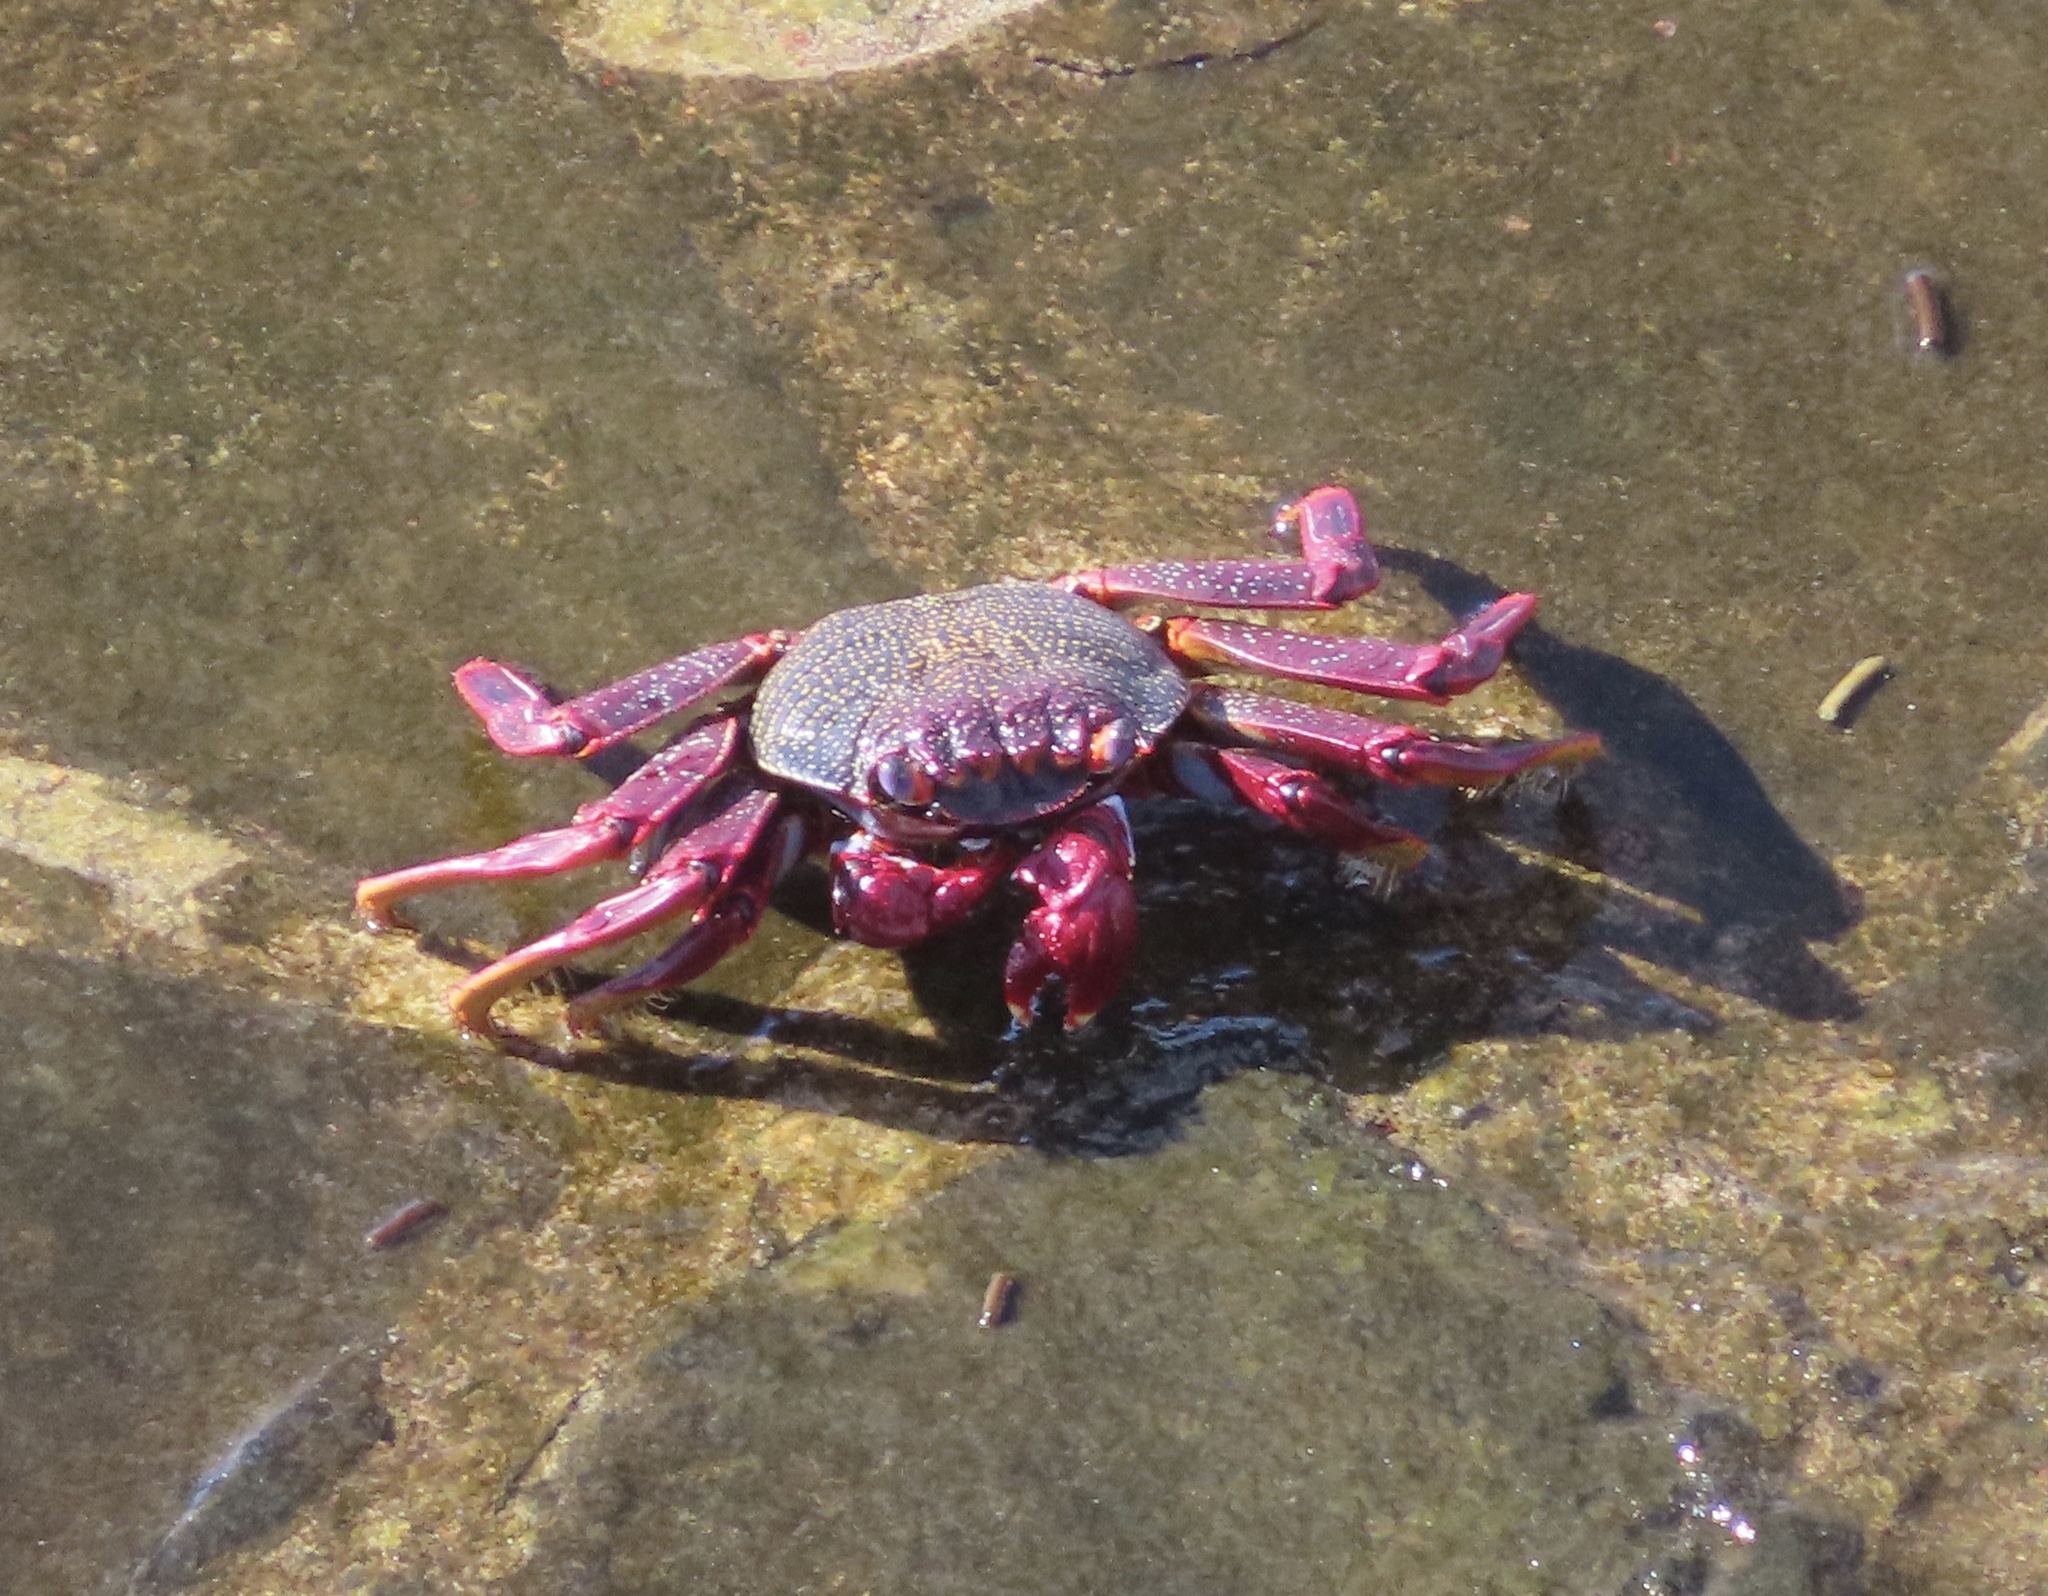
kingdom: Animalia
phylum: Arthropoda
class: Malacostraca
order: Decapoda
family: Grapsidae
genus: Grapsus
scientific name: Grapsus adscensionis
